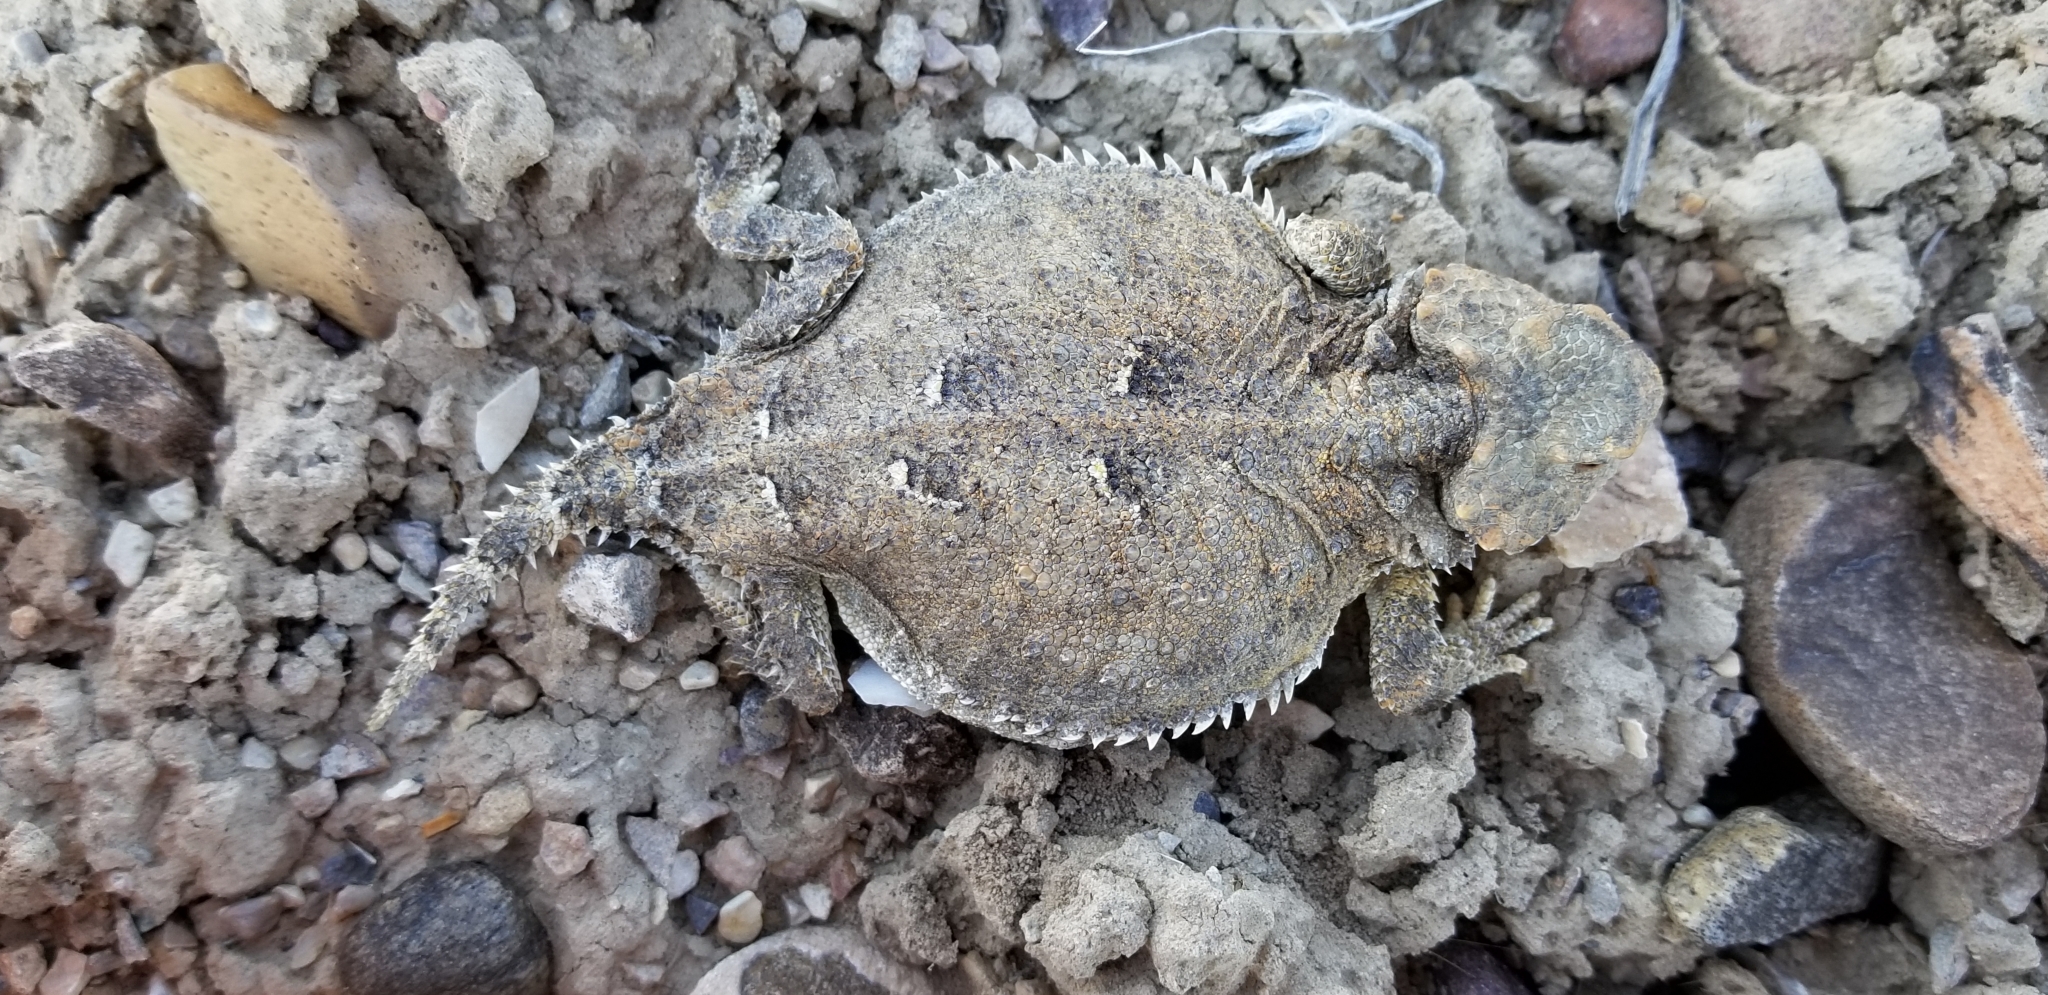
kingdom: Animalia
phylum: Chordata
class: Squamata
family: Phrynosomatidae
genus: Phrynosoma
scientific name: Phrynosoma hernandesi
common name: Greater short-horned lizard
